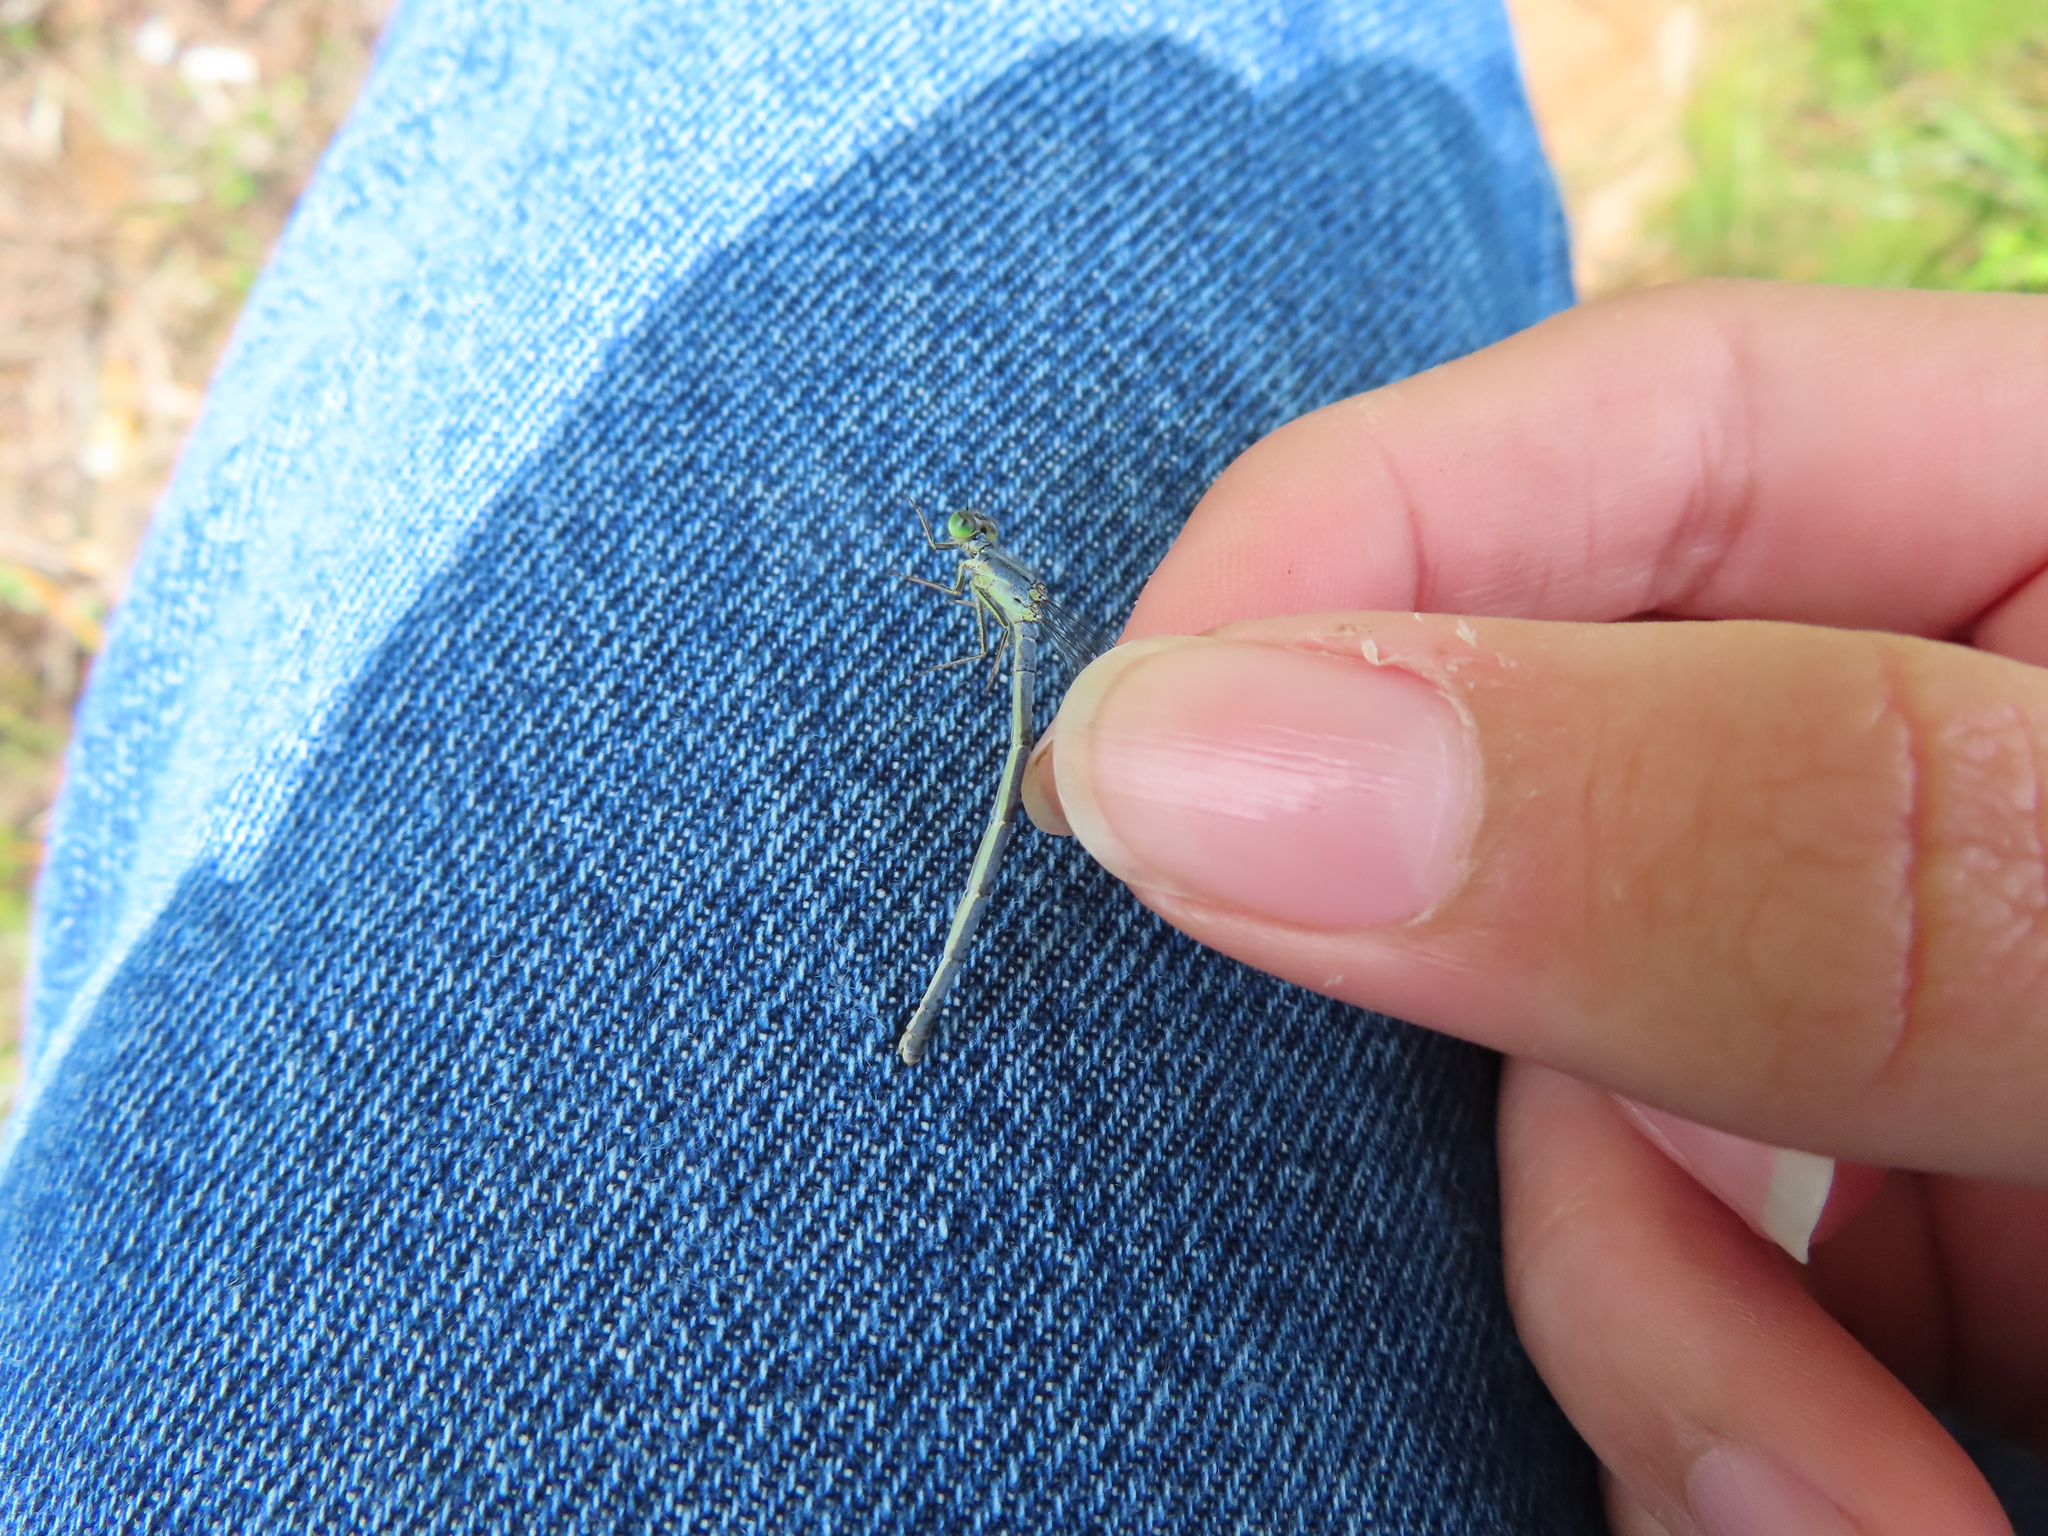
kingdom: Animalia
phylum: Arthropoda
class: Insecta
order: Odonata
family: Coenagrionidae
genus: Ischnura
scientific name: Ischnura verticalis
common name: Eastern forktail
